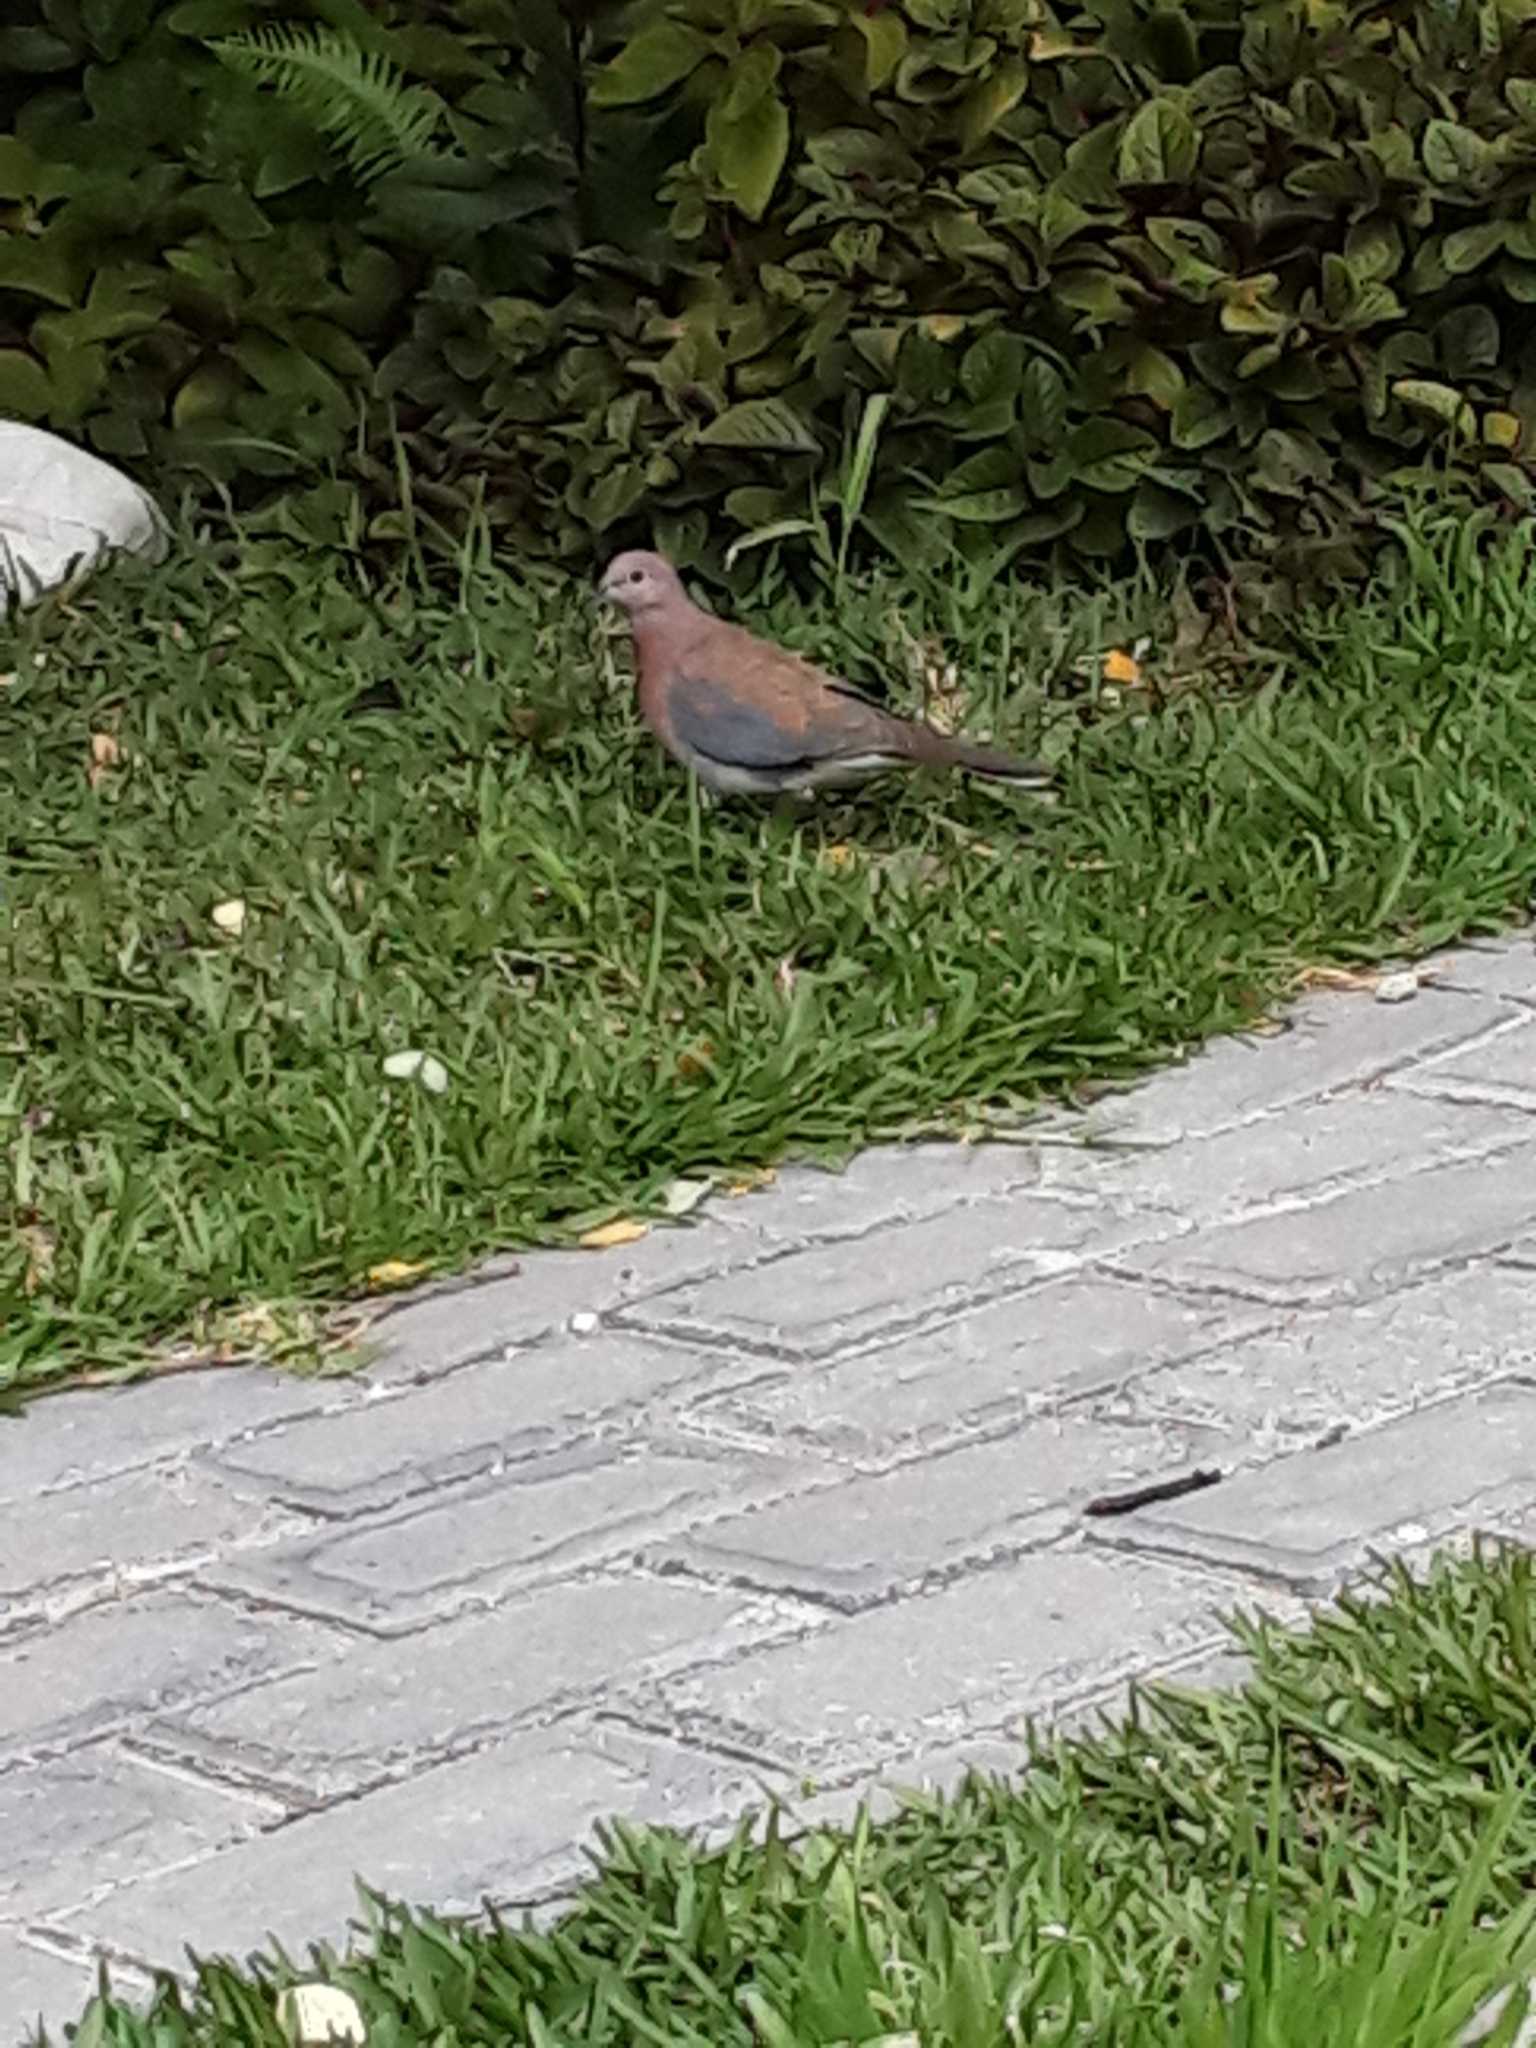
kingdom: Animalia
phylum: Chordata
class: Aves
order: Columbiformes
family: Columbidae
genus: Spilopelia
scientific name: Spilopelia senegalensis
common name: Laughing dove
